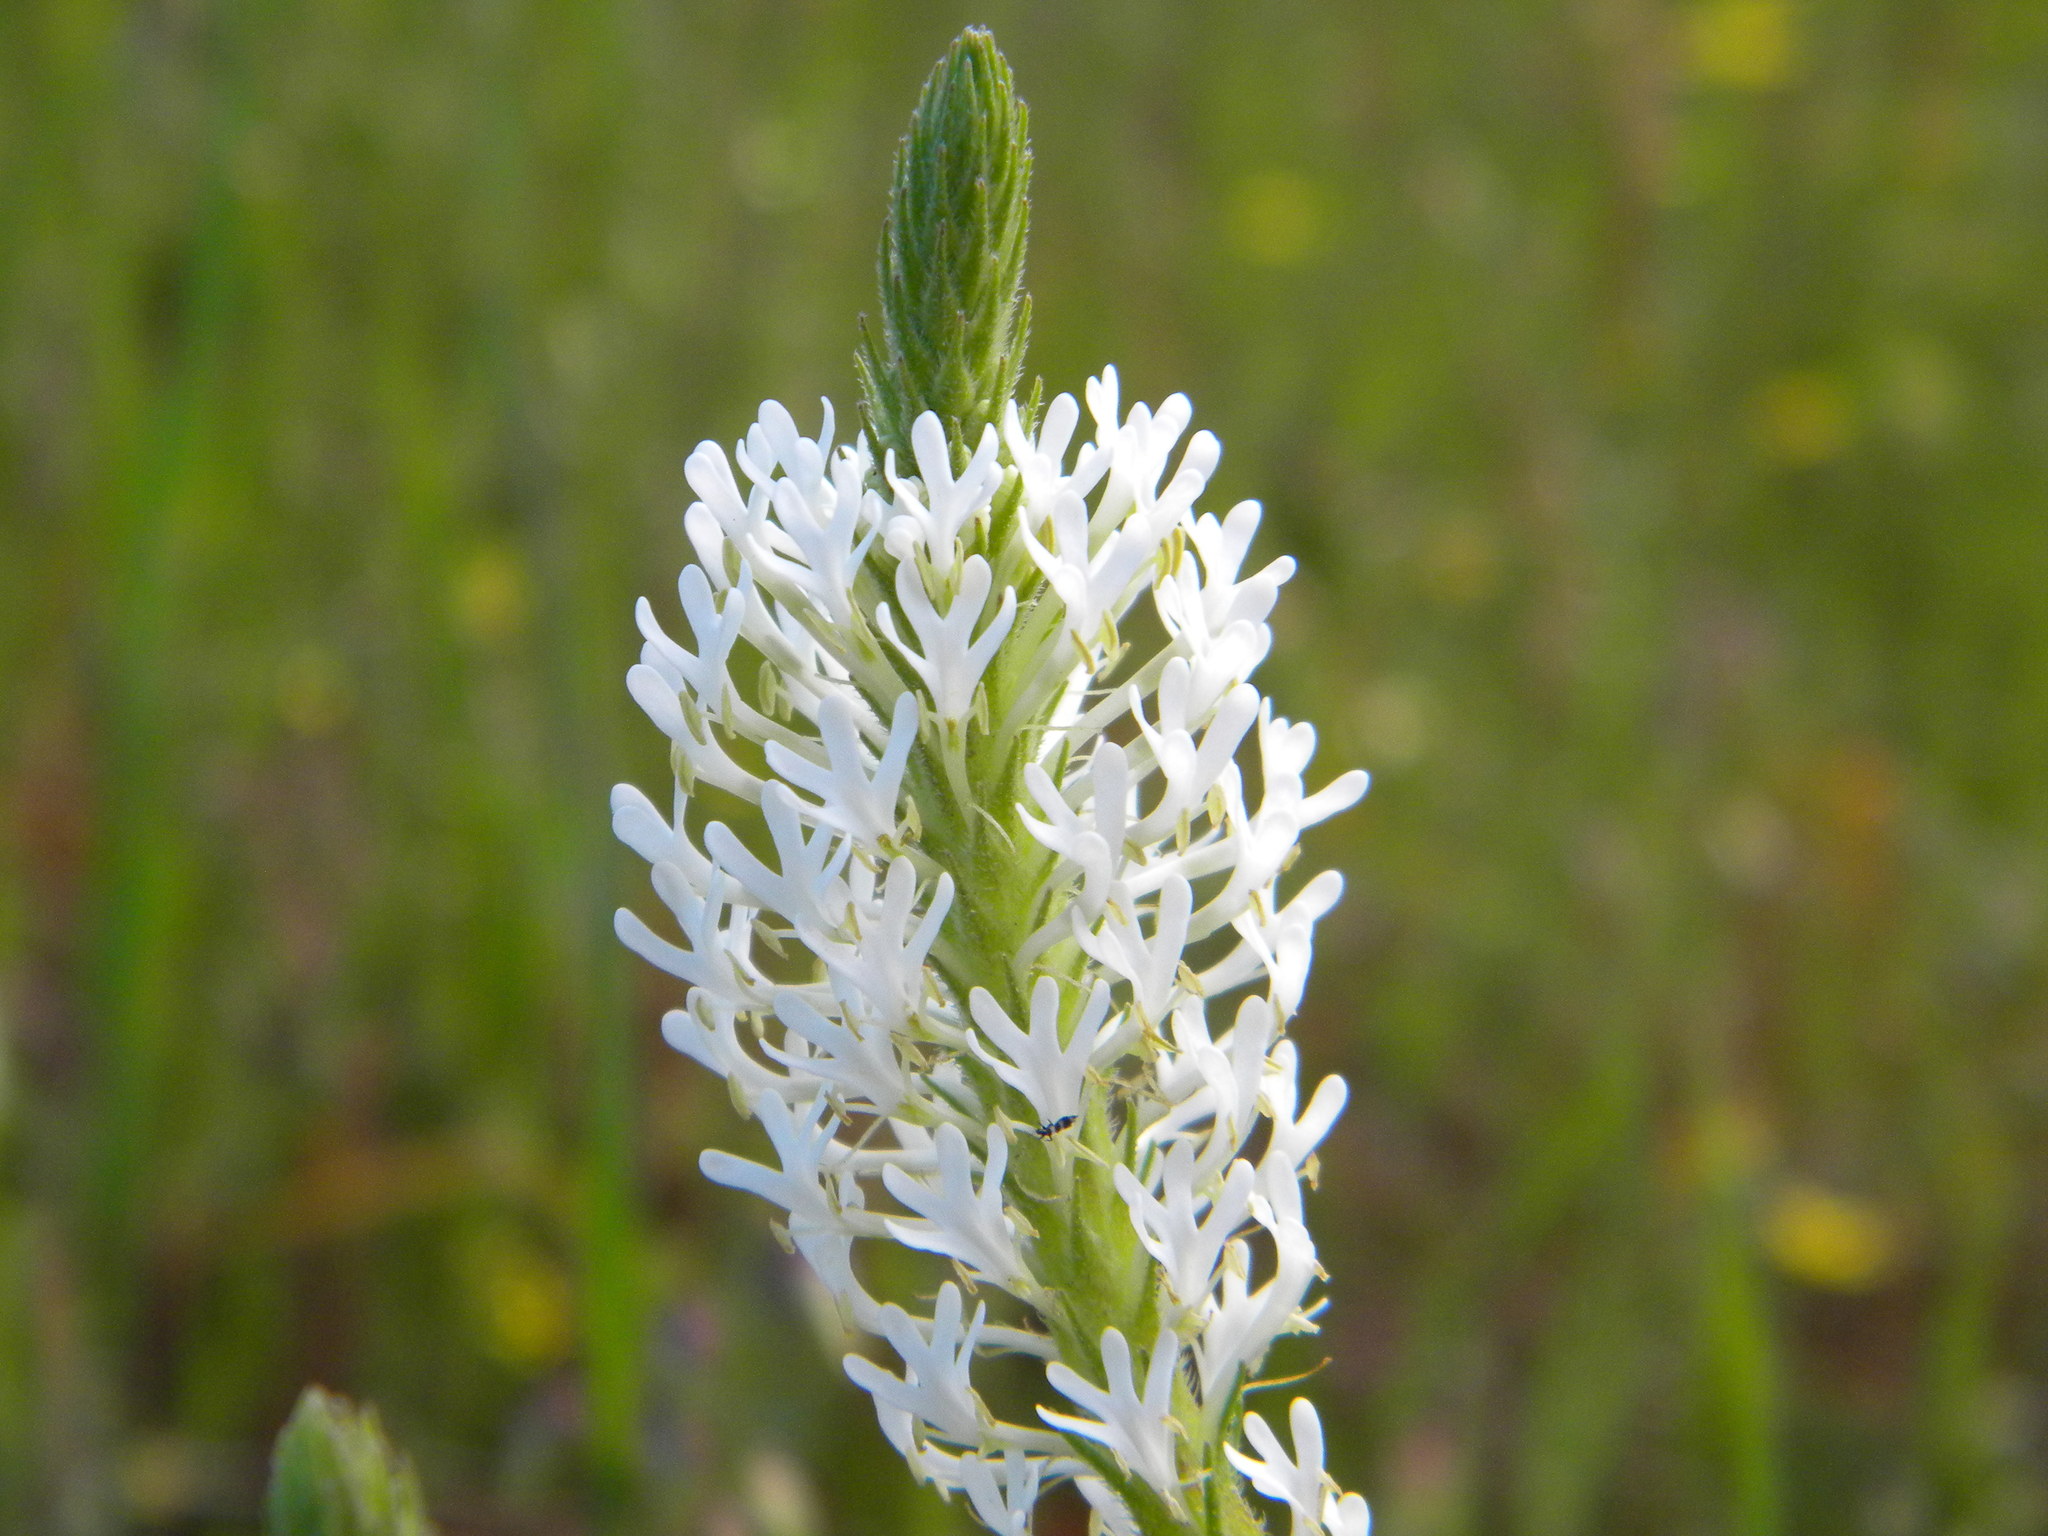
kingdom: Plantae
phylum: Tracheophyta
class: Magnoliopsida
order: Lamiales
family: Scrophulariaceae
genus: Dischisma
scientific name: Dischisma ciliatum
